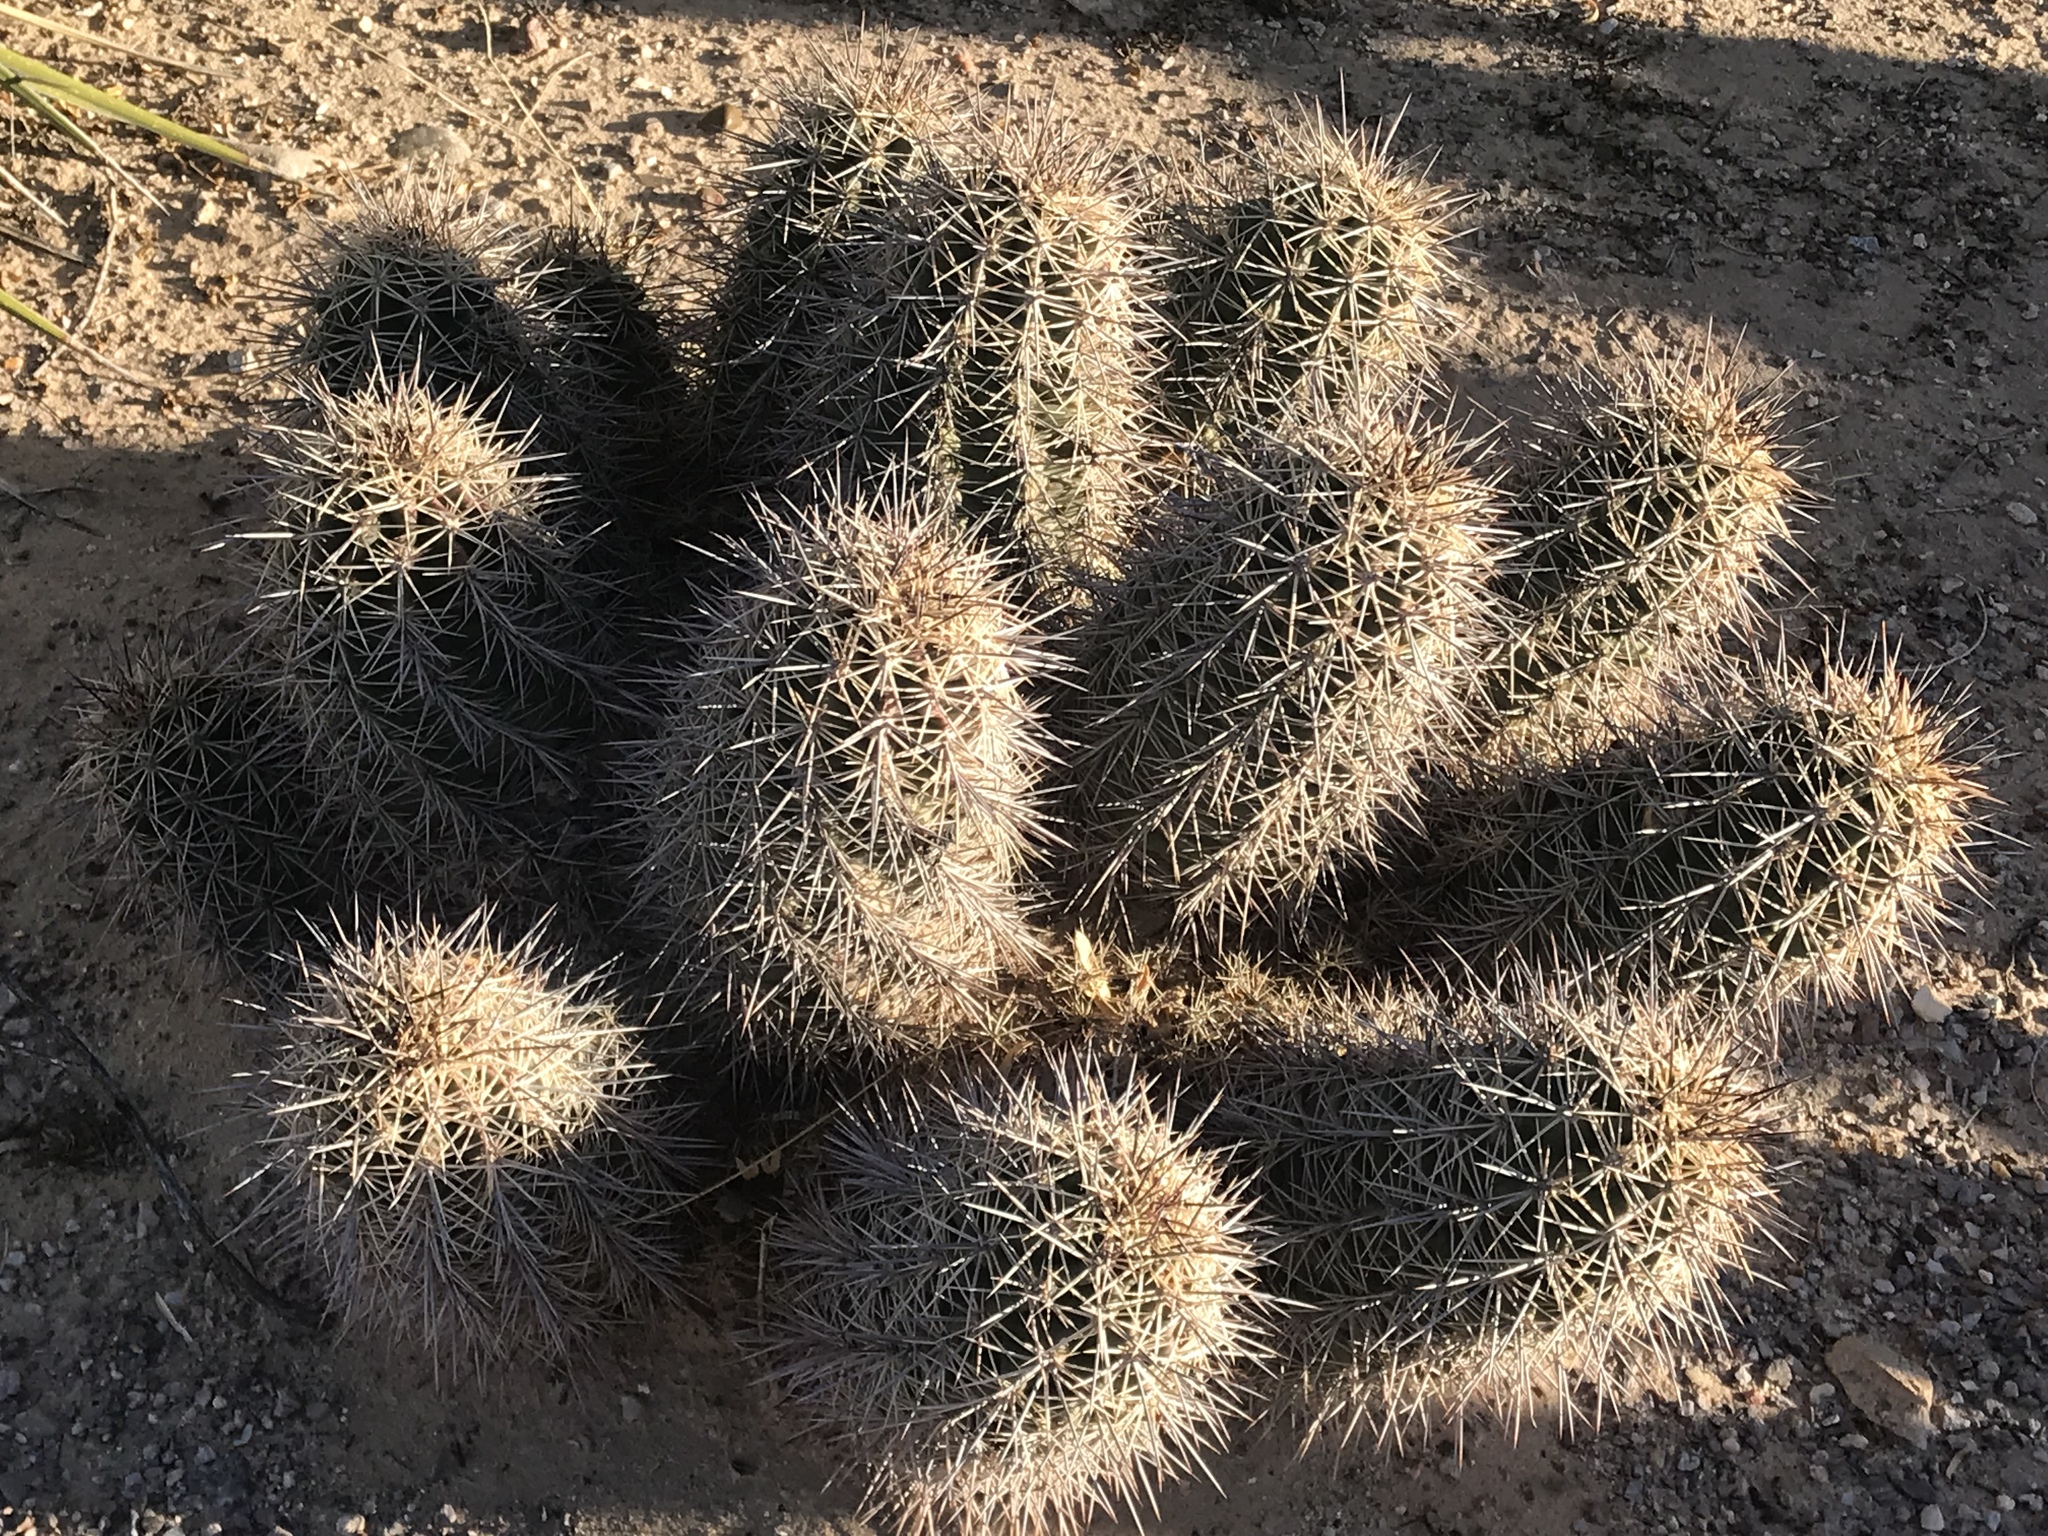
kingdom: Plantae
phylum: Tracheophyta
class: Magnoliopsida
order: Caryophyllales
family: Cactaceae
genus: Echinocereus
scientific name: Echinocereus coccineus
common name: Scarlet hedgehog cactus
